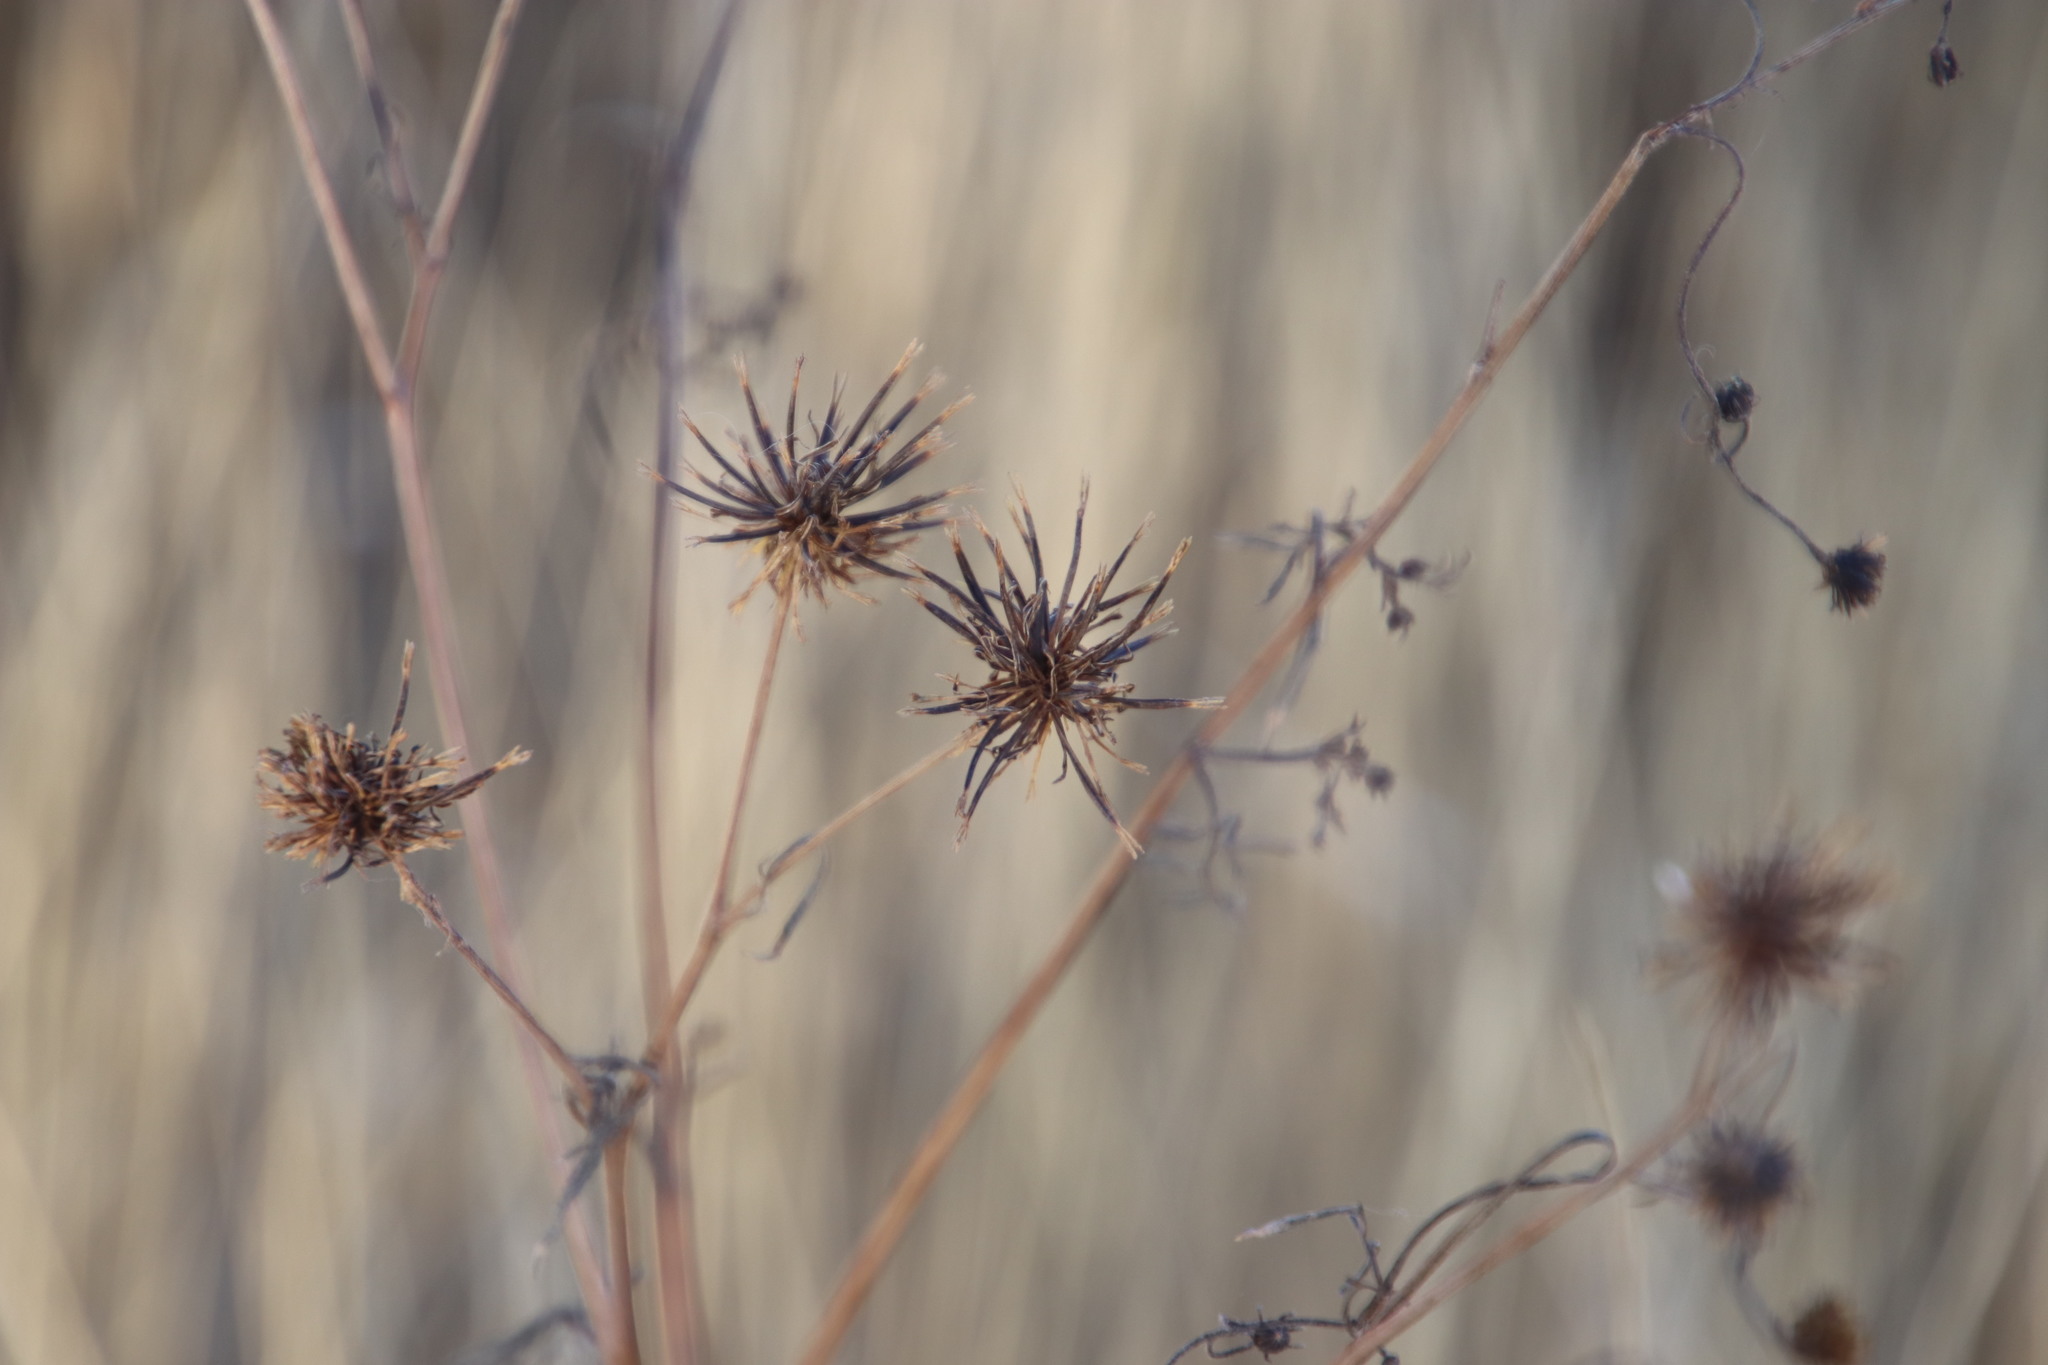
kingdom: Plantae
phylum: Tracheophyta
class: Magnoliopsida
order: Asterales
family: Asteraceae
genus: Bidens
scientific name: Bidens pilosa
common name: Black-jack
